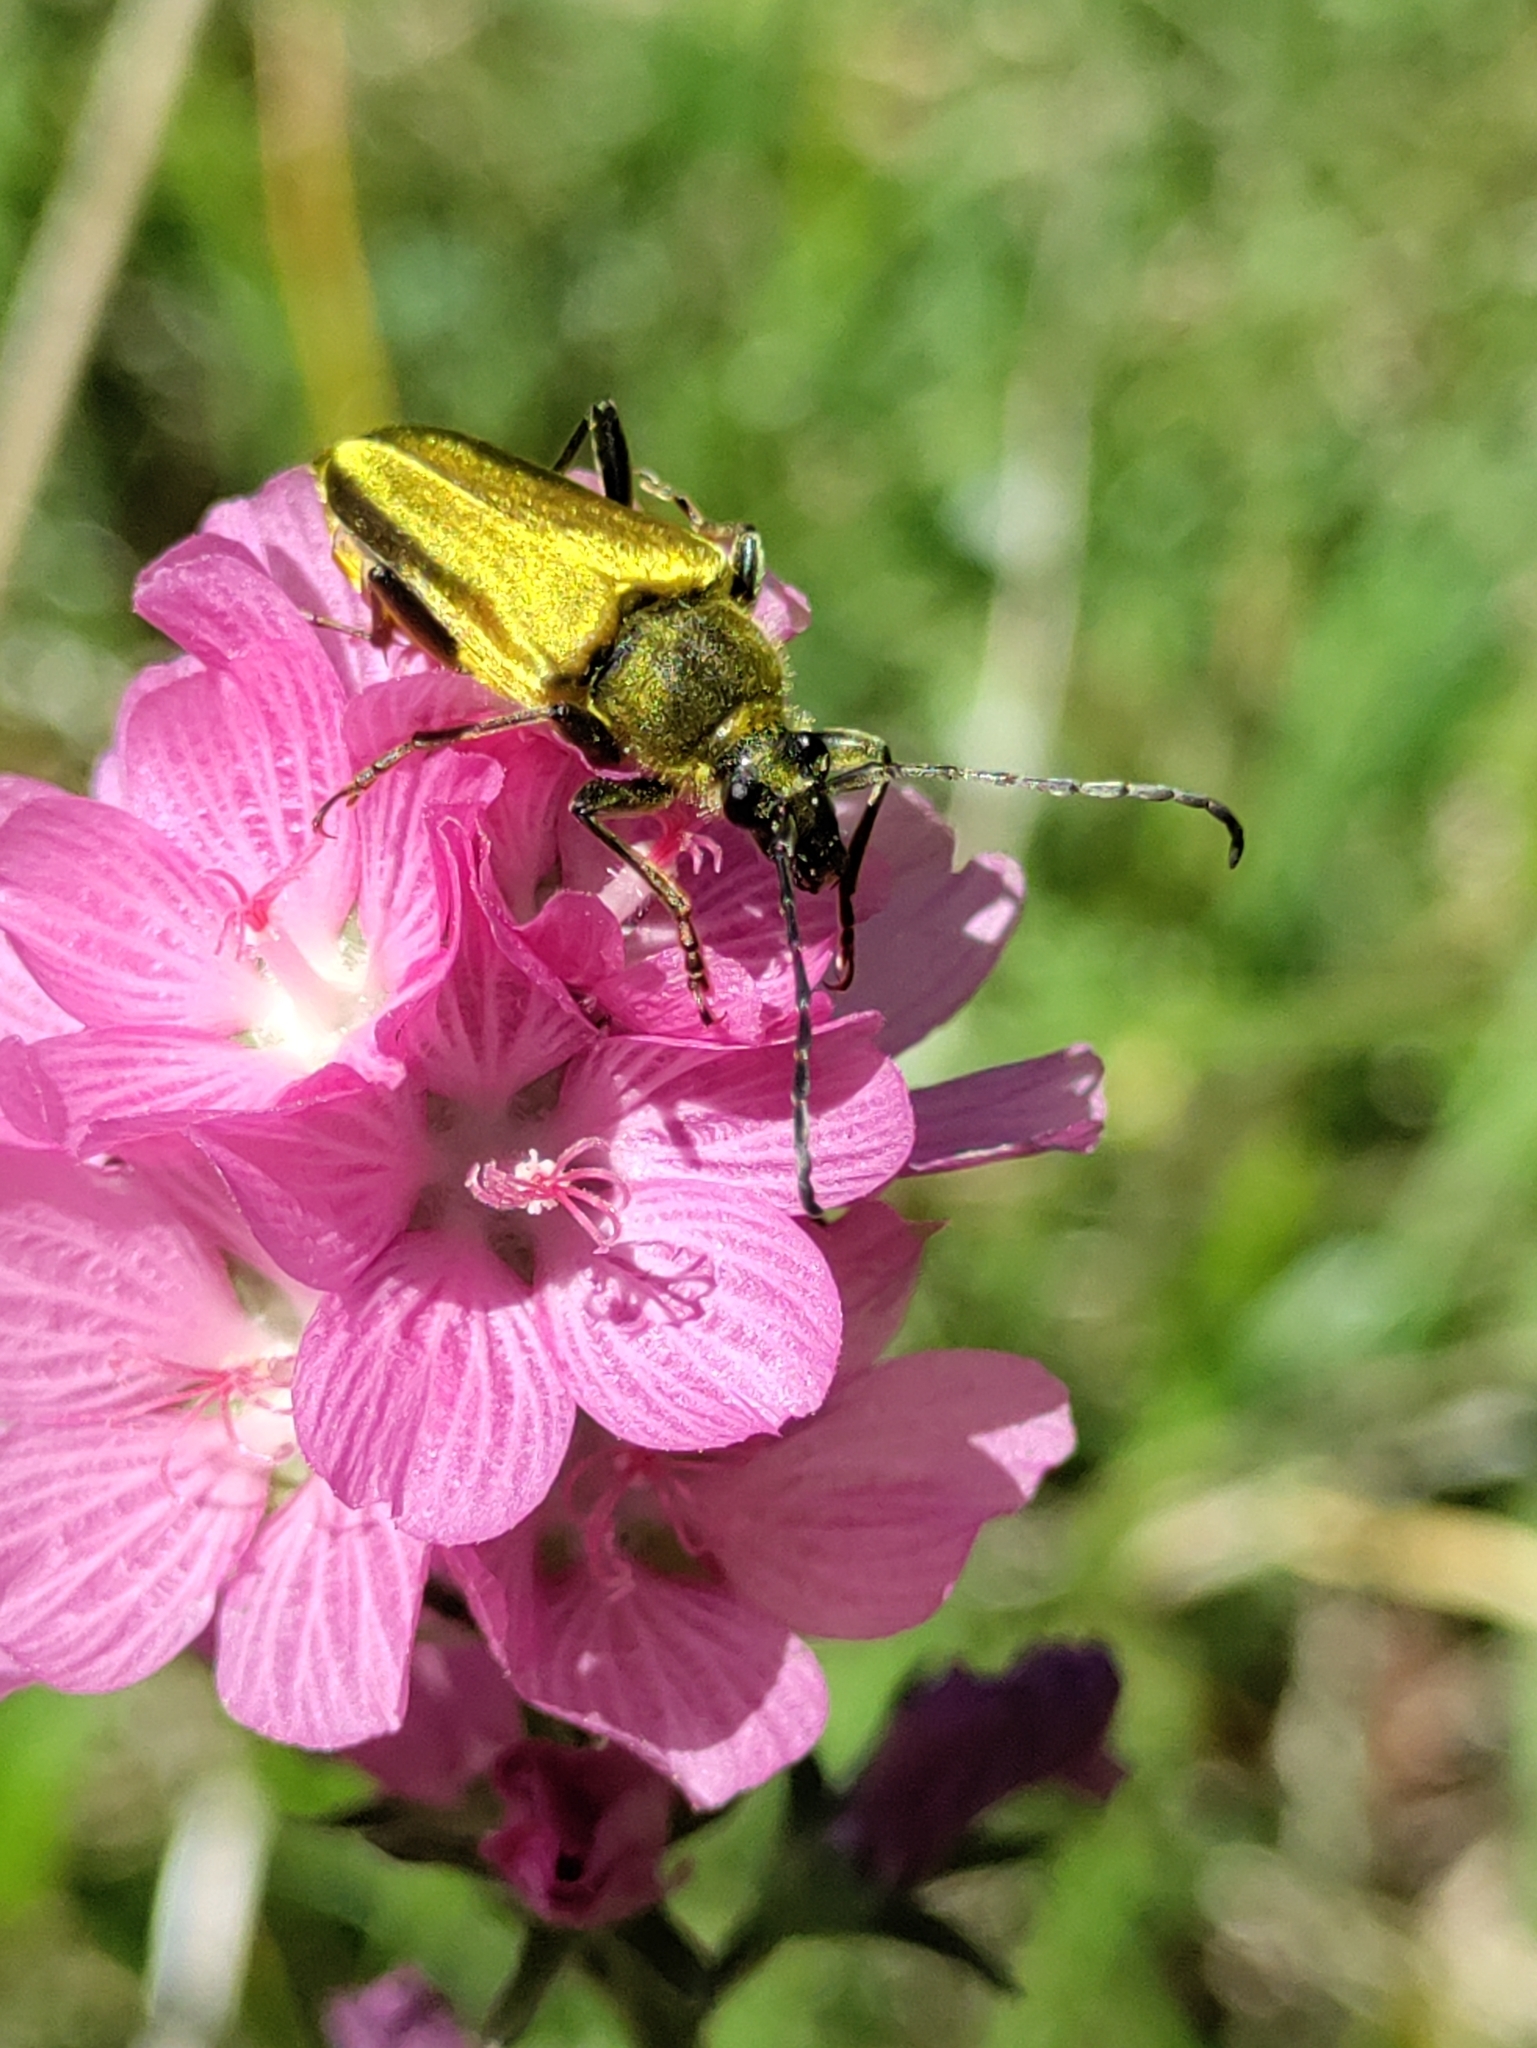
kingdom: Animalia
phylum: Arthropoda
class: Insecta
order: Coleoptera
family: Cerambycidae
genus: Cosmosalia
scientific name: Cosmosalia chrysocoma
